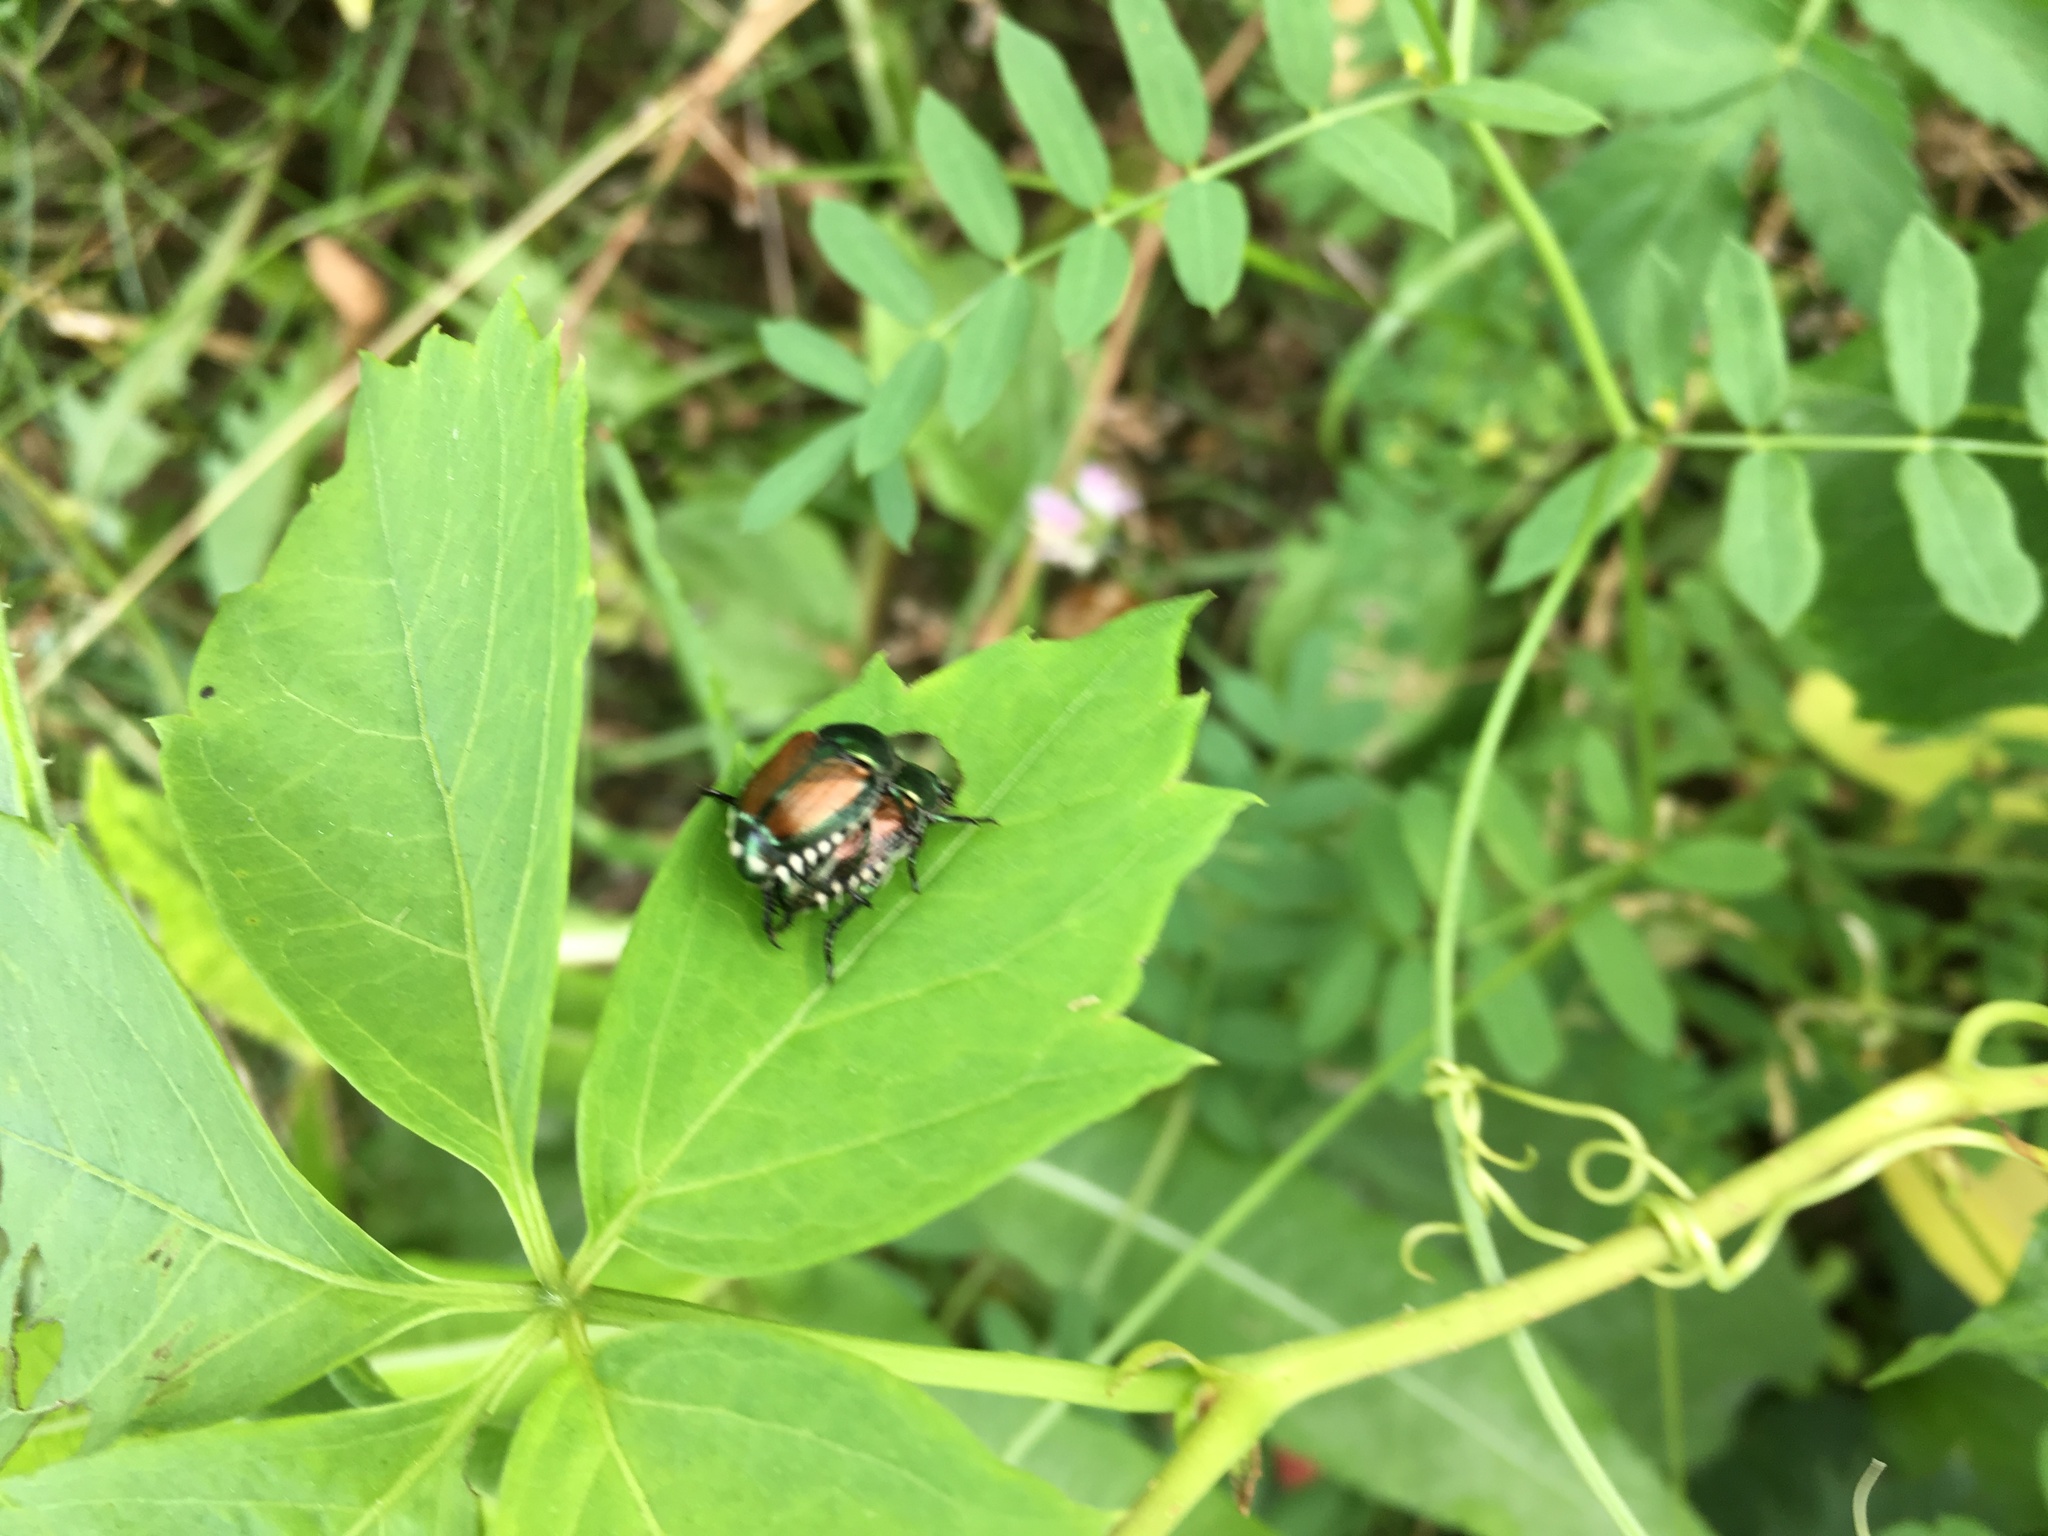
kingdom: Animalia
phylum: Arthropoda
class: Insecta
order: Coleoptera
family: Scarabaeidae
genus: Popillia
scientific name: Popillia japonica
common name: Japanese beetle
